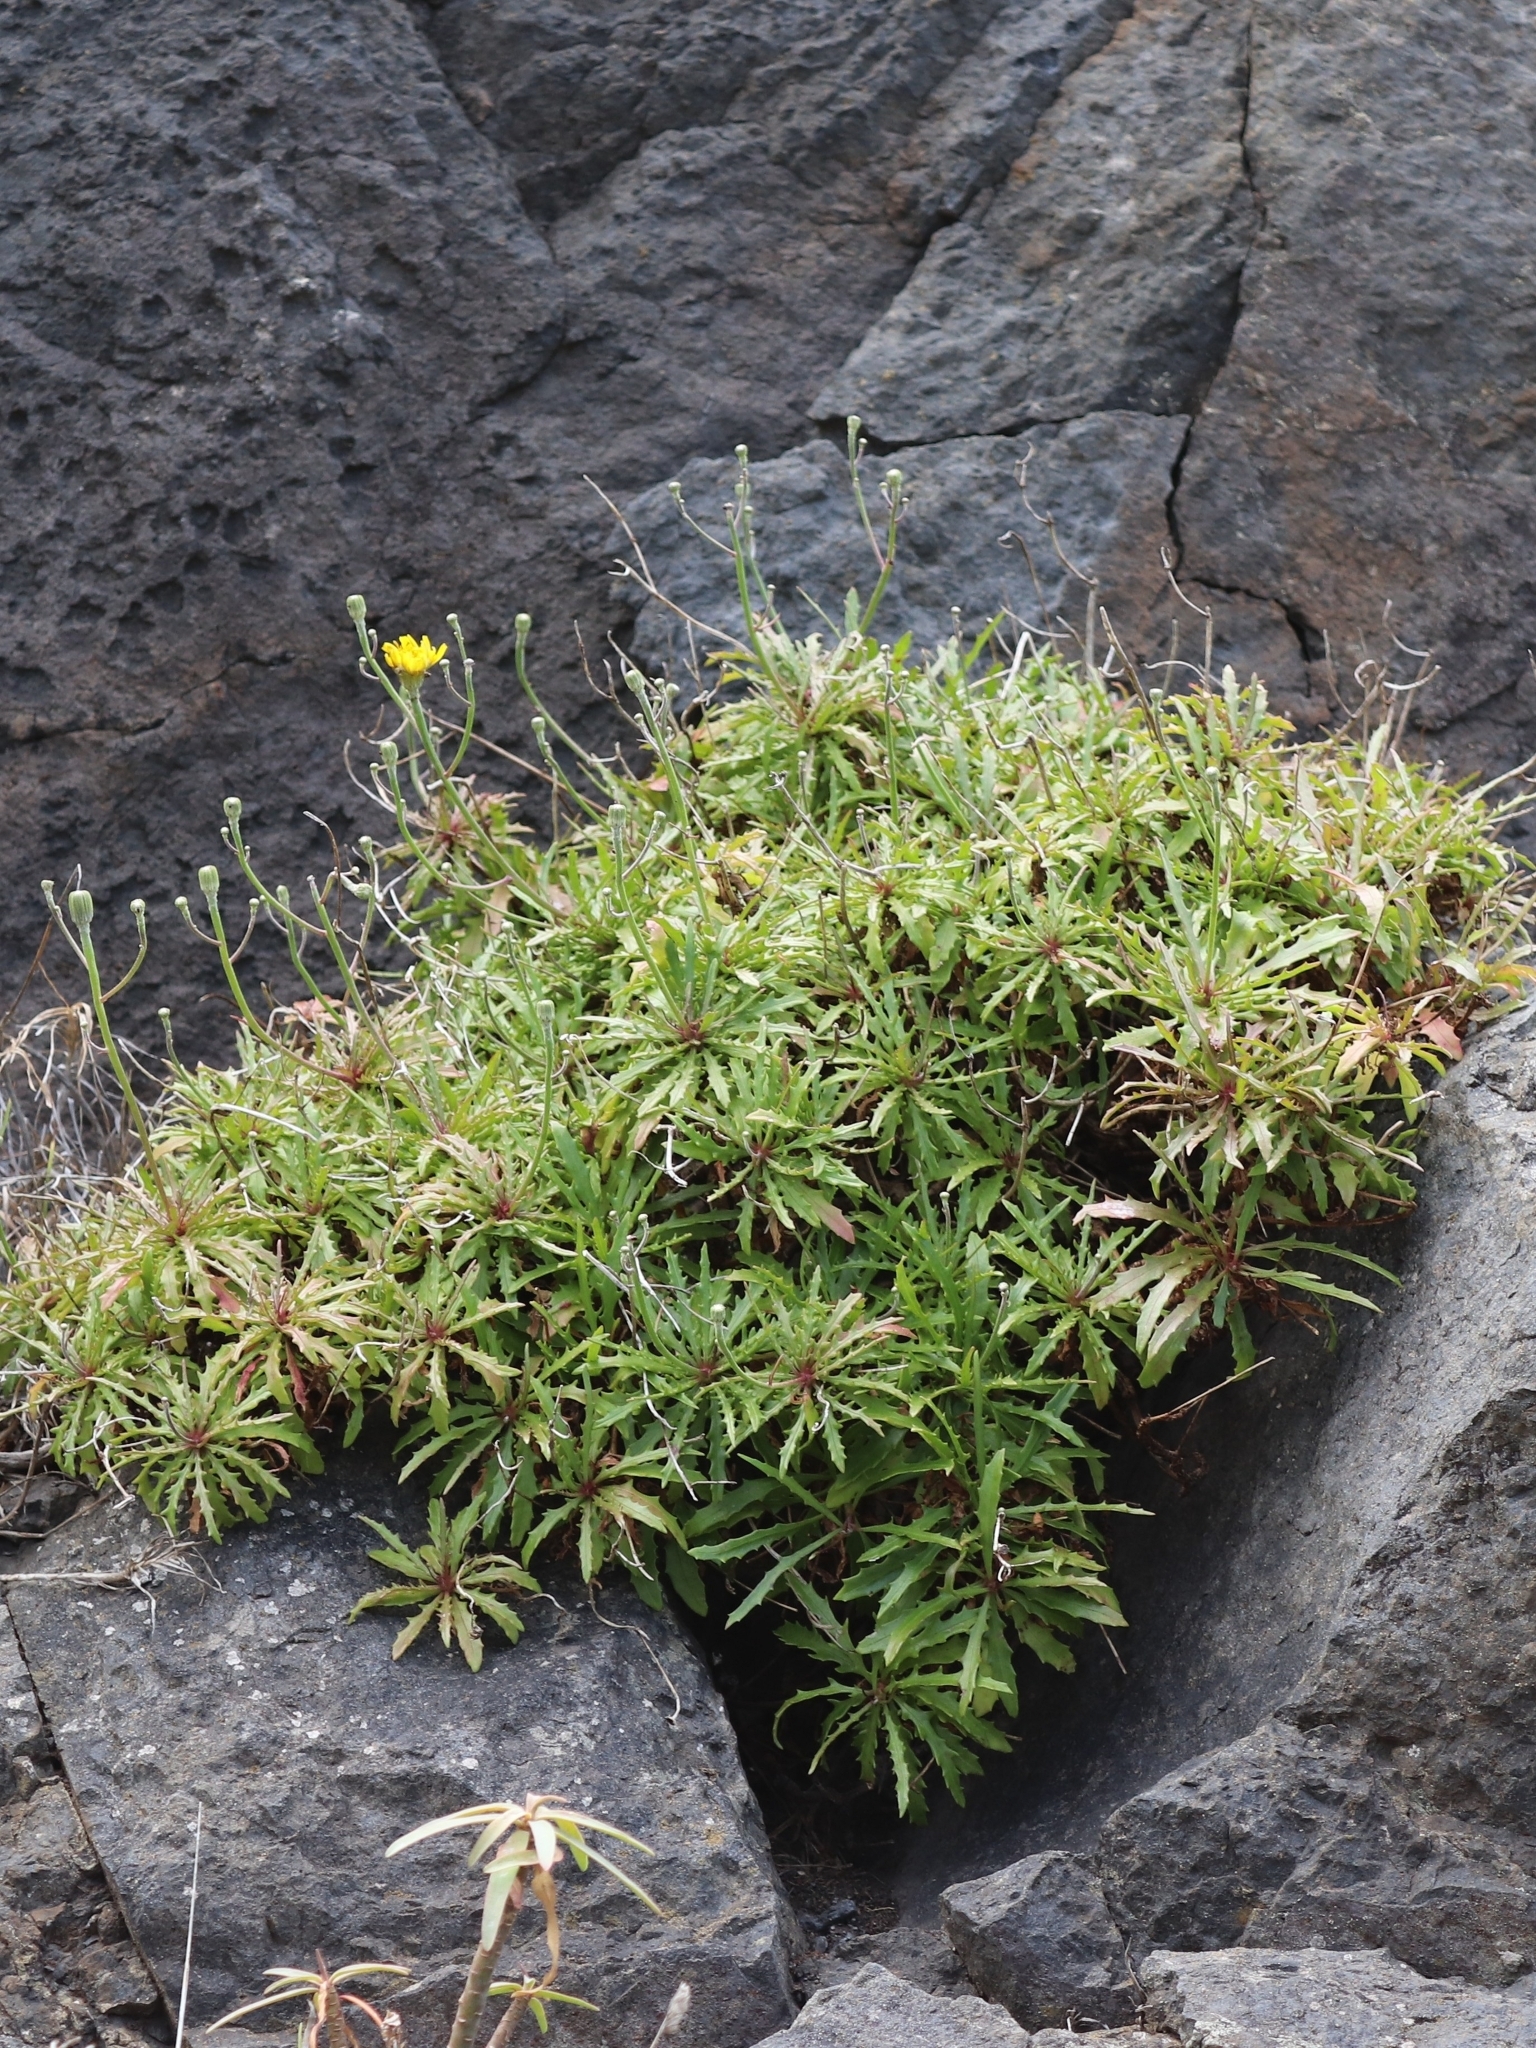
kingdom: Plantae
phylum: Tracheophyta
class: Magnoliopsida
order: Asterales
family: Asteraceae
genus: Tolpis
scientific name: Tolpis succulenta
